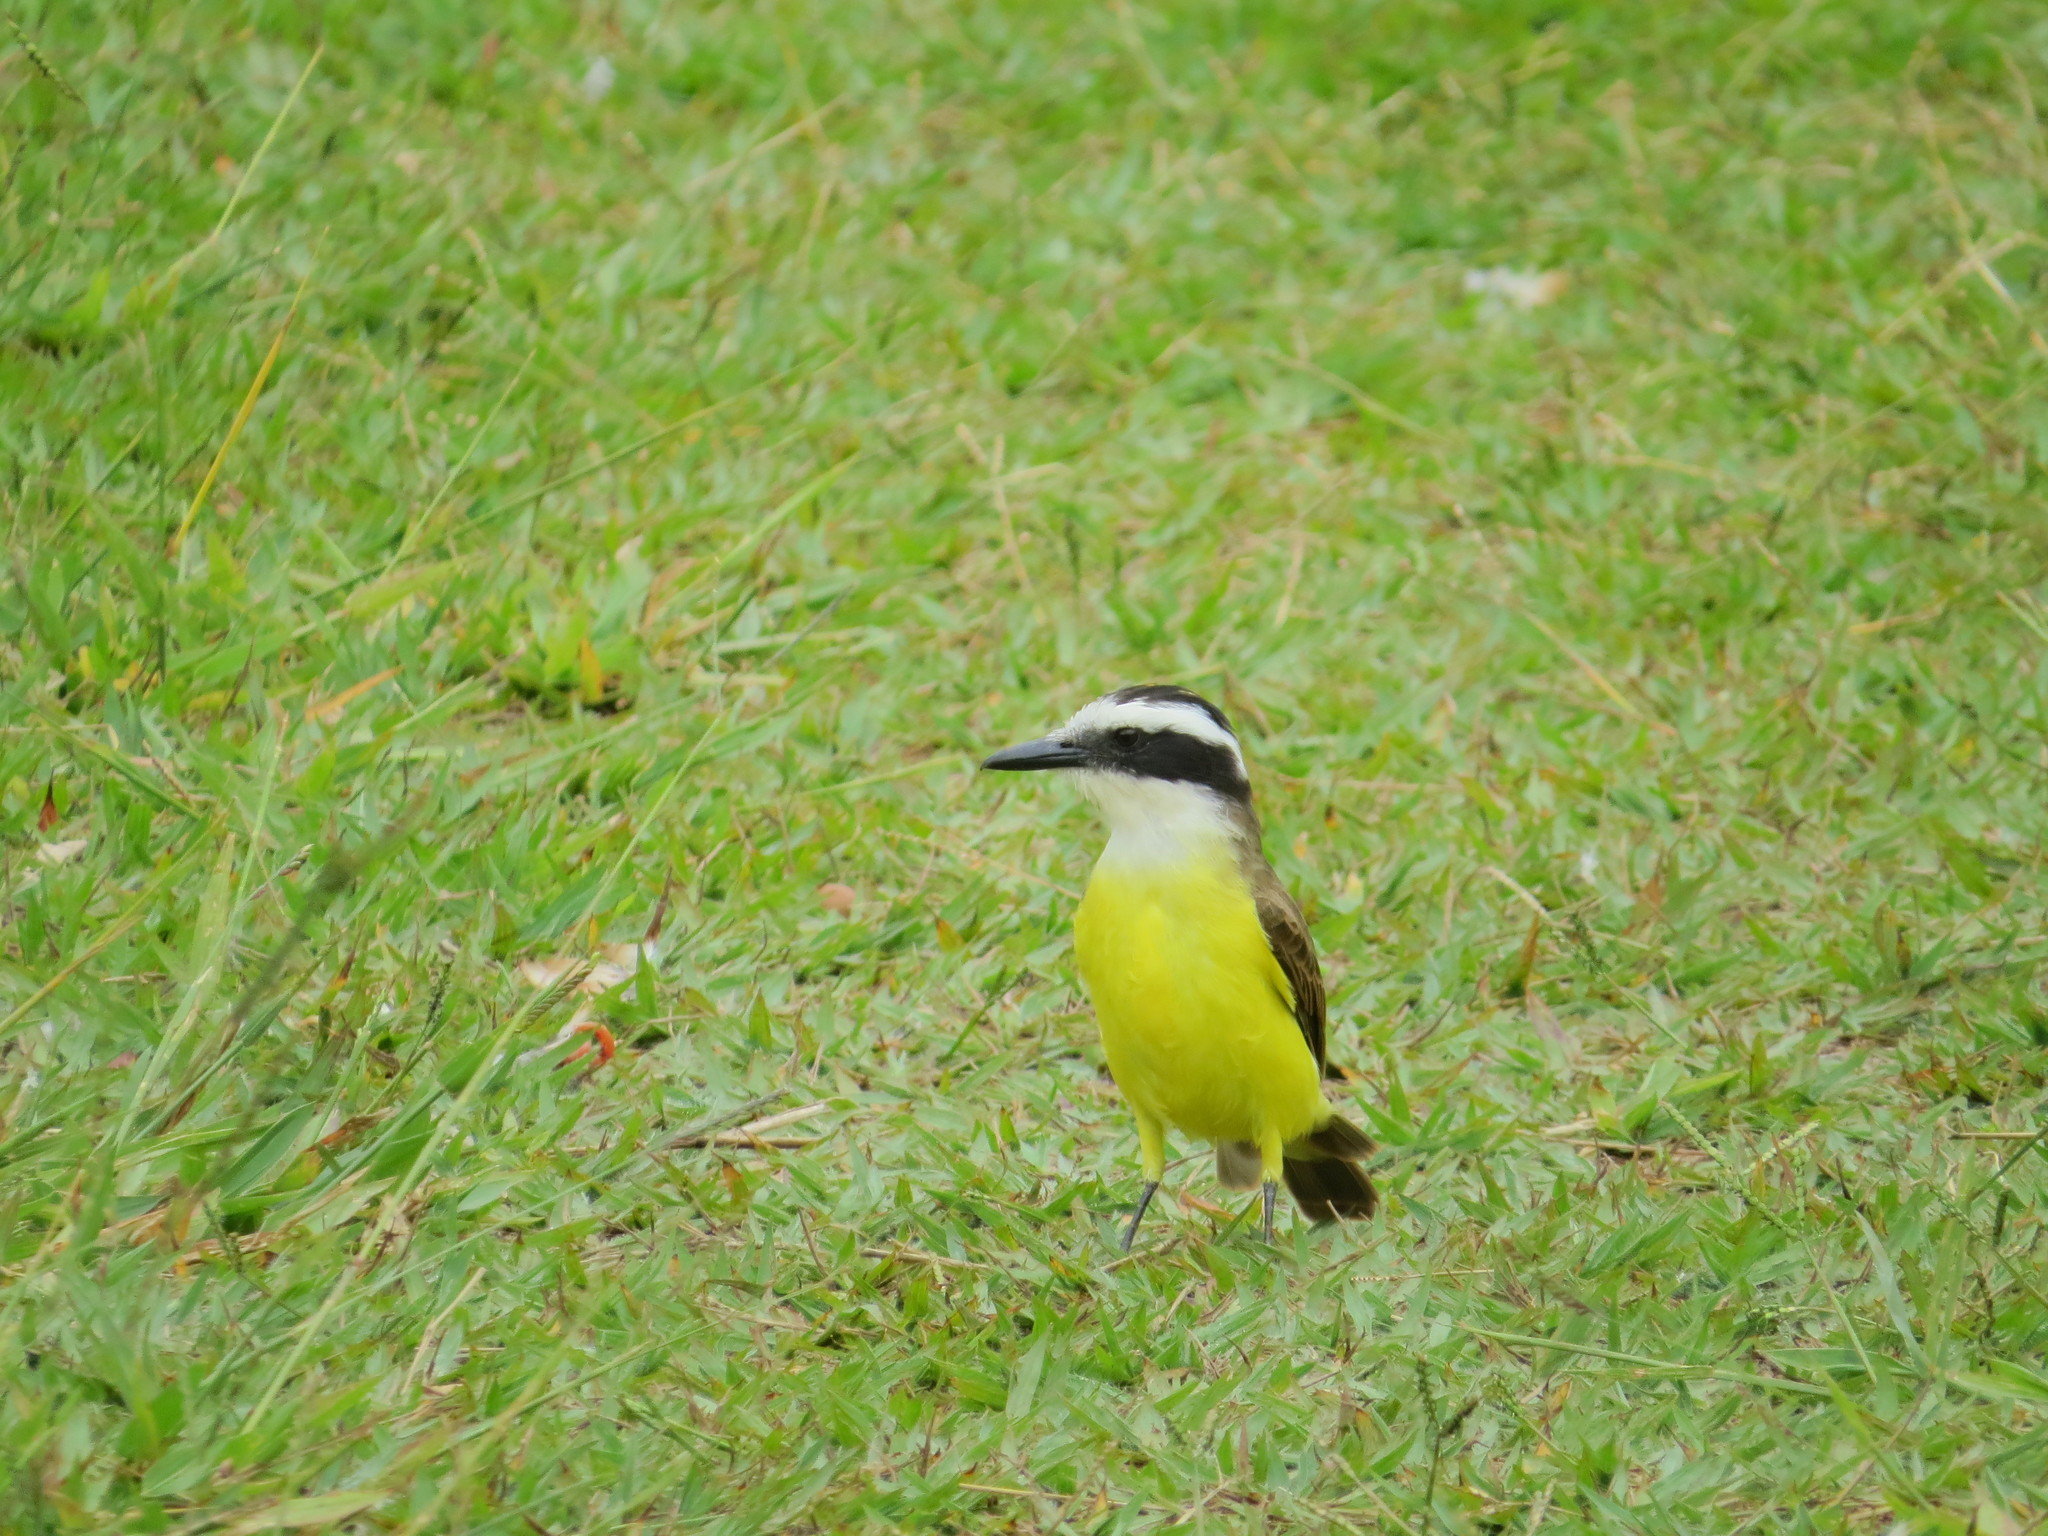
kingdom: Animalia
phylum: Chordata
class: Aves
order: Passeriformes
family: Tyrannidae
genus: Pitangus
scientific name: Pitangus sulphuratus
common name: Great kiskadee
